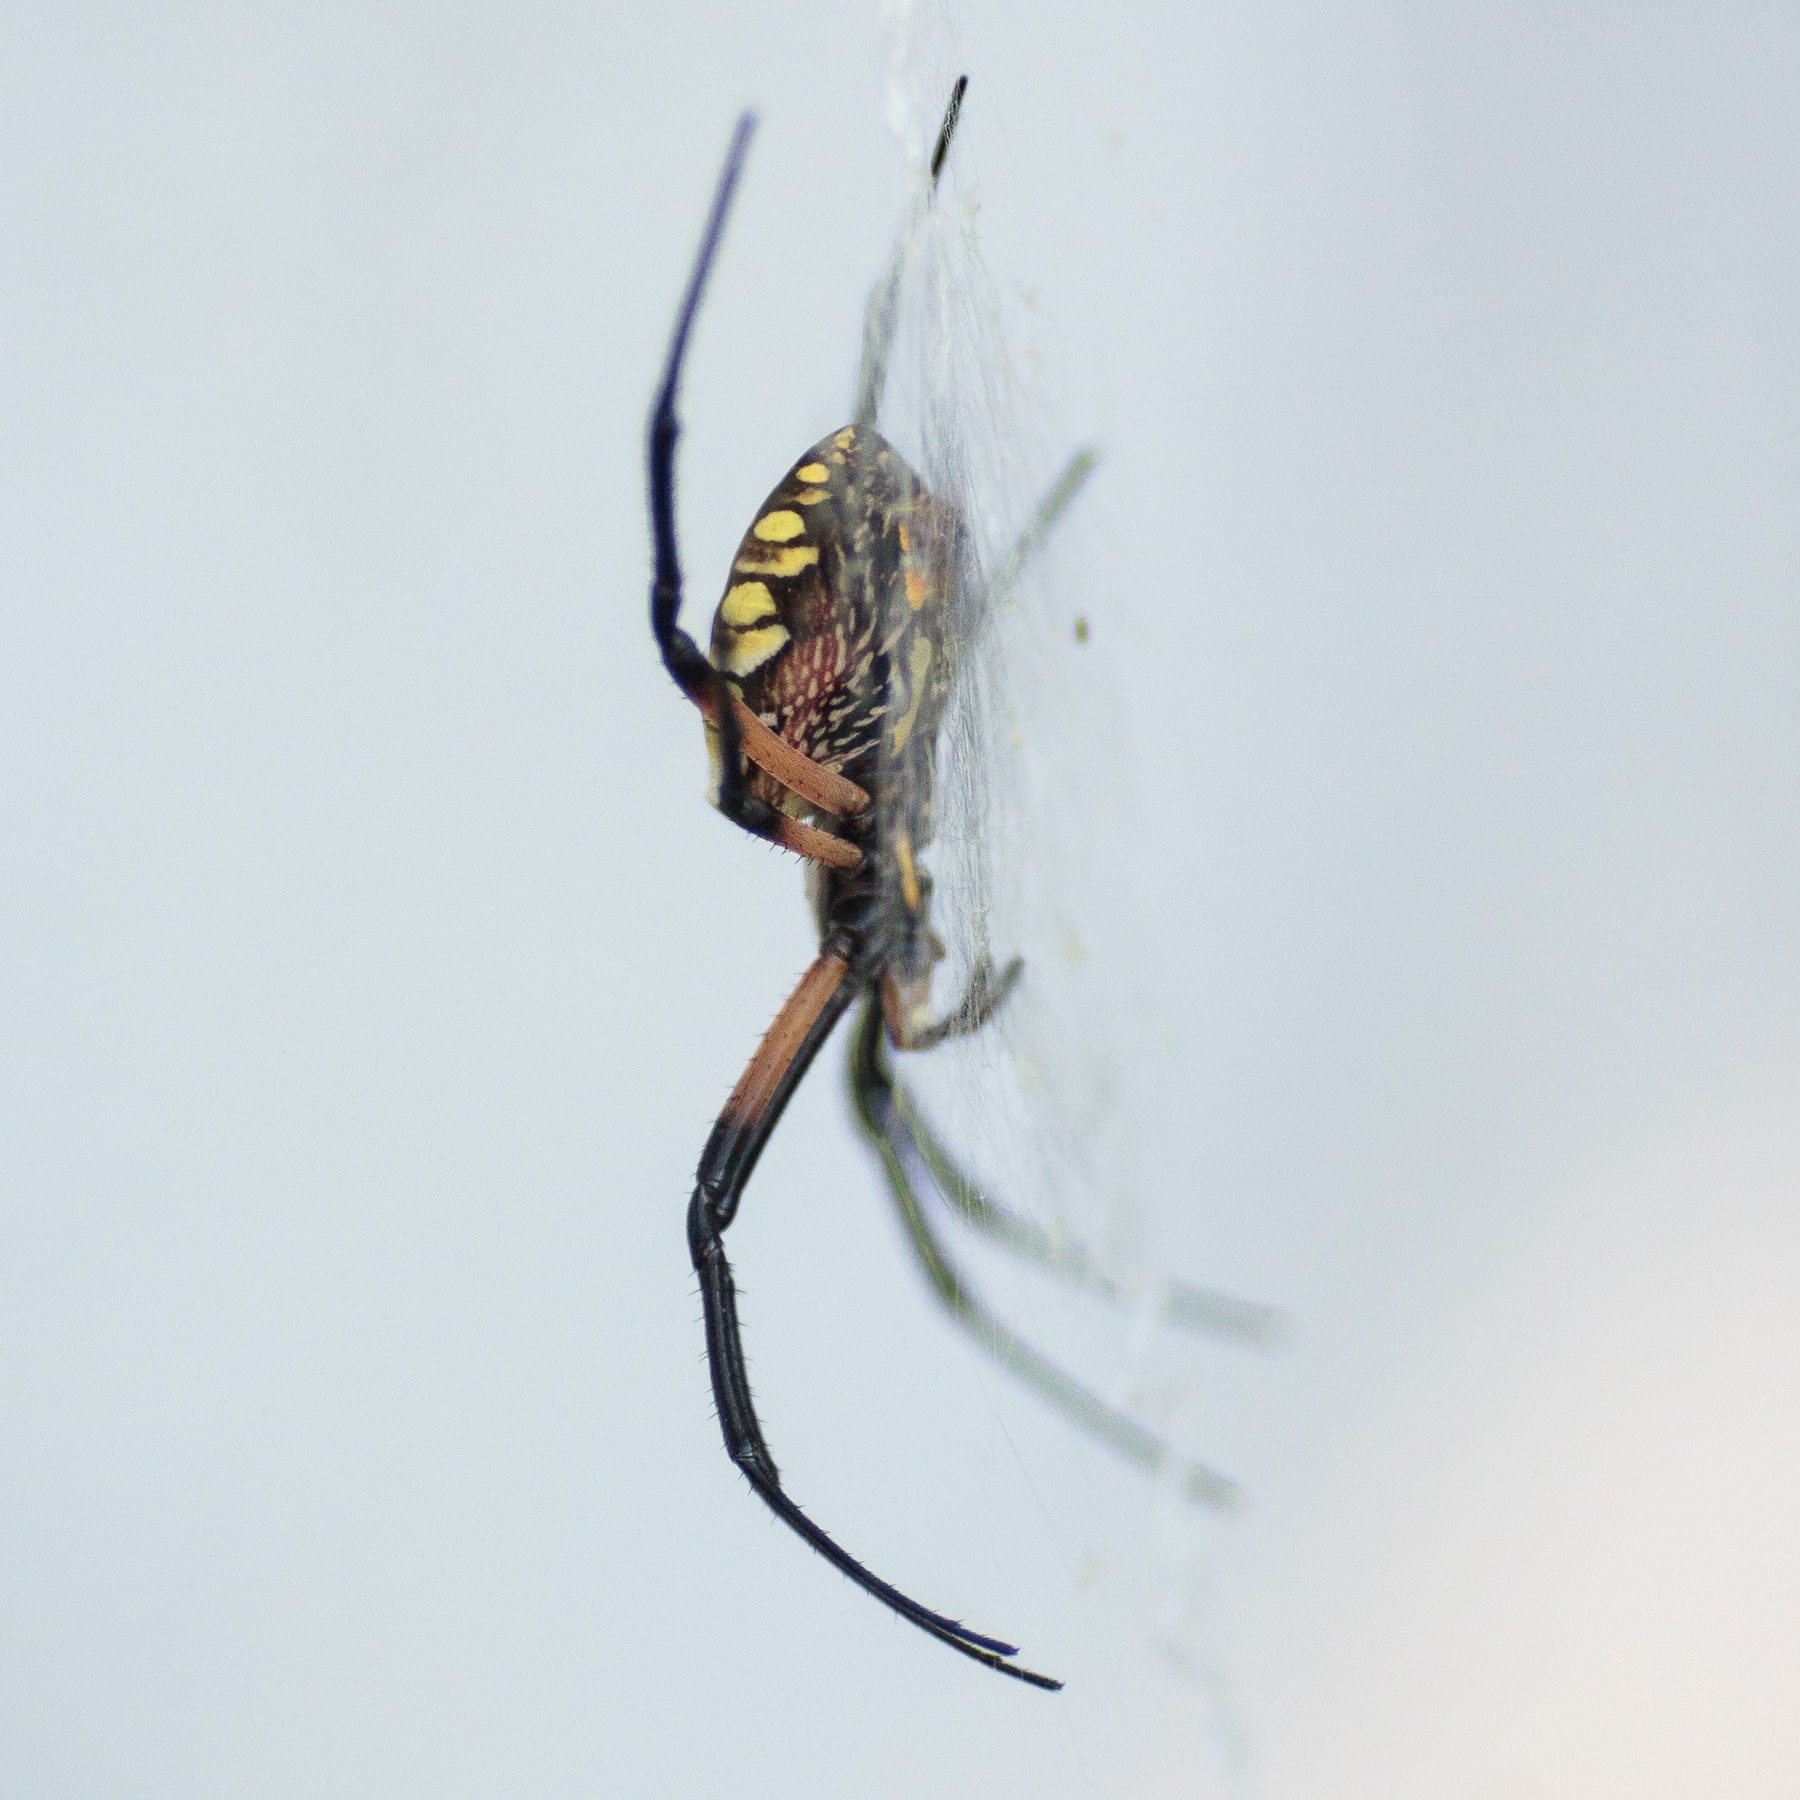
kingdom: Animalia
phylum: Arthropoda
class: Arachnida
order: Araneae
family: Araneidae
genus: Argiope
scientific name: Argiope aurantia
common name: Orb weavers
